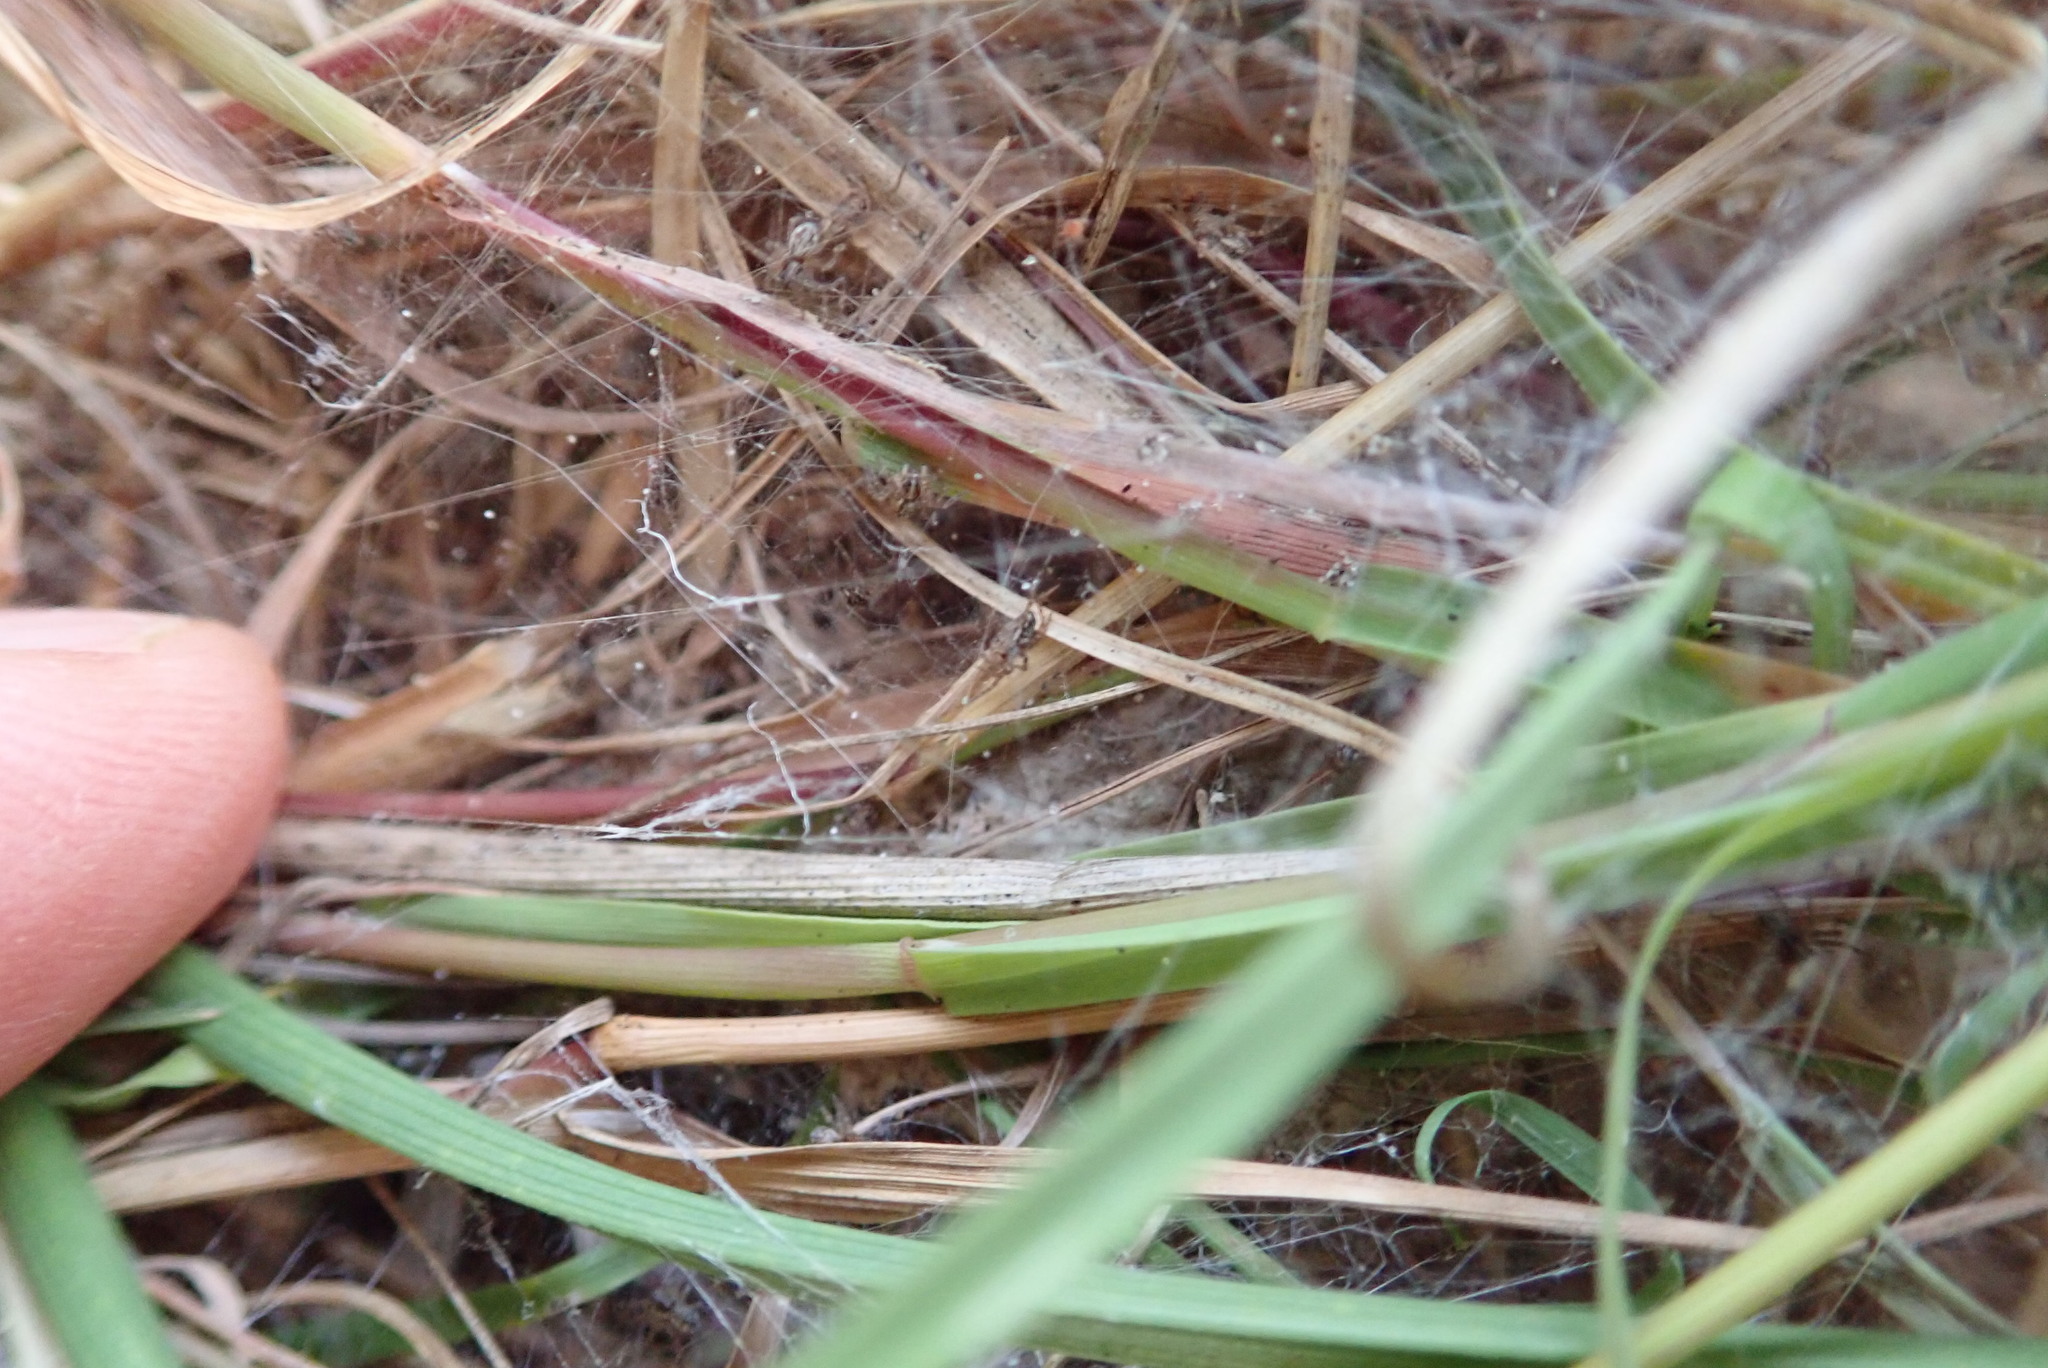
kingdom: Animalia
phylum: Arthropoda
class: Arachnida
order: Araneae
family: Pisauridae
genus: Dolomedes
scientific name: Dolomedes minor
